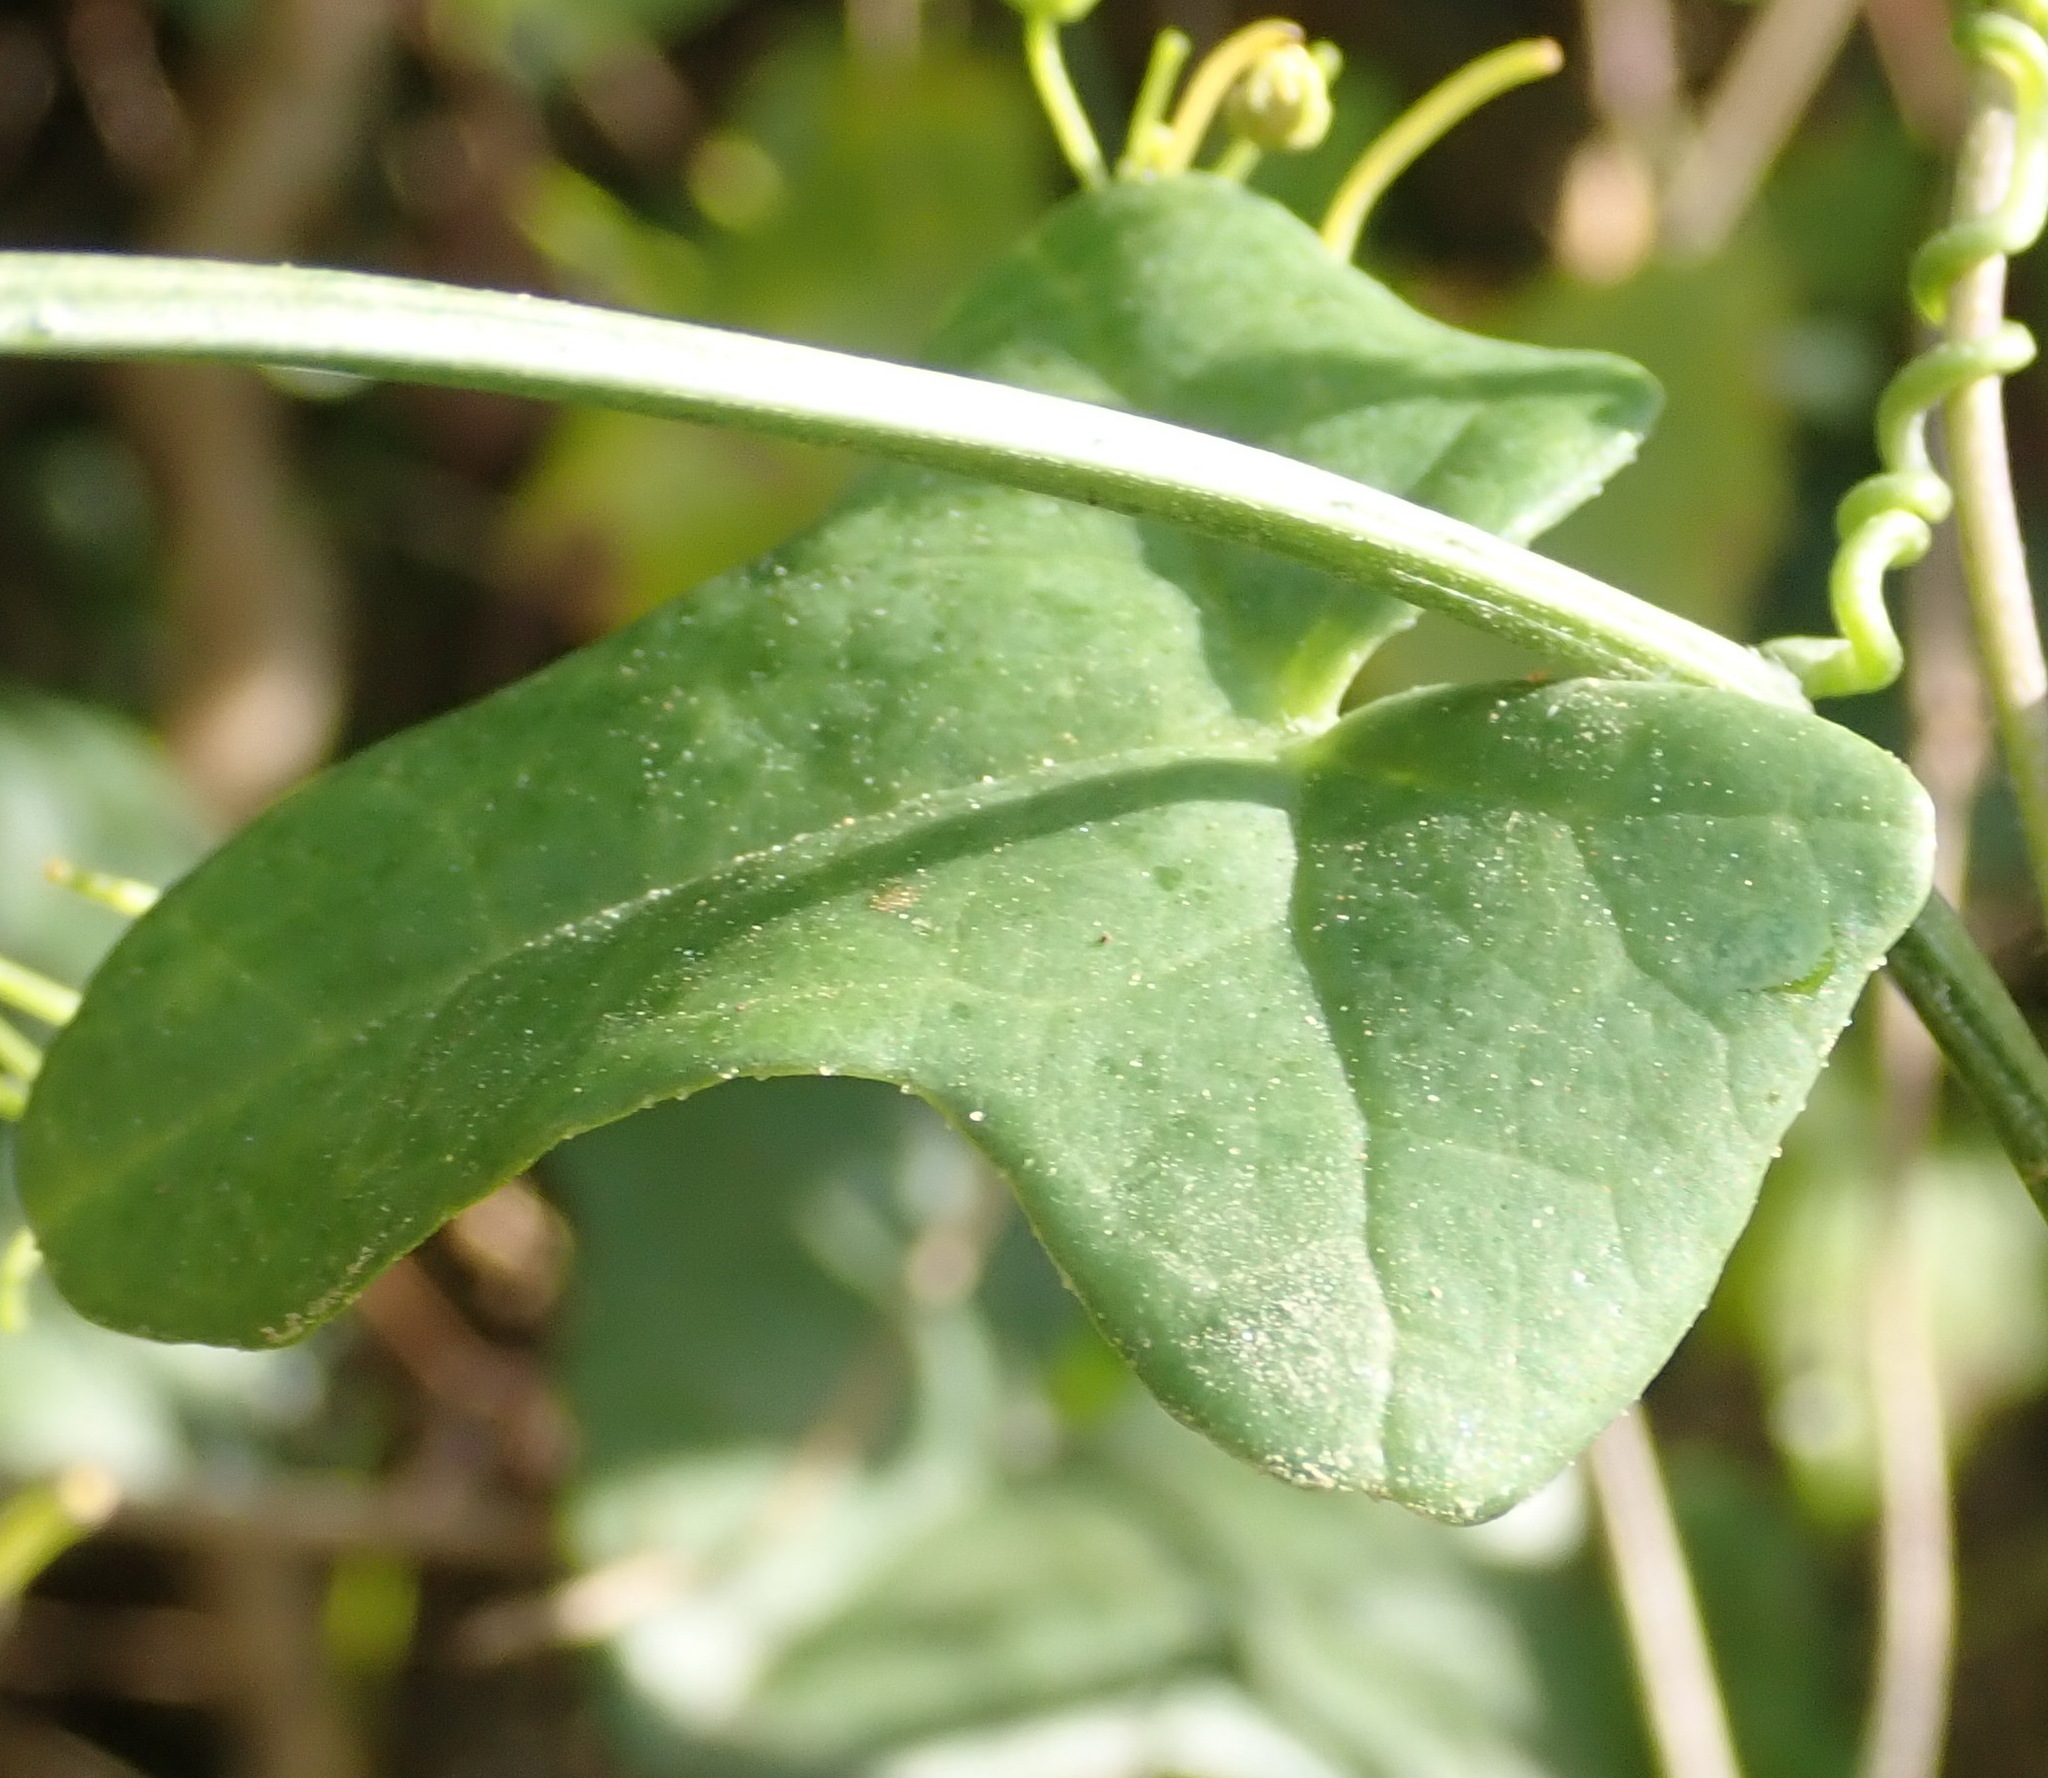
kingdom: Plantae
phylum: Tracheophyta
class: Magnoliopsida
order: Cucurbitales
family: Cucurbitaceae
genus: Kedrostis
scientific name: Kedrostis nana
